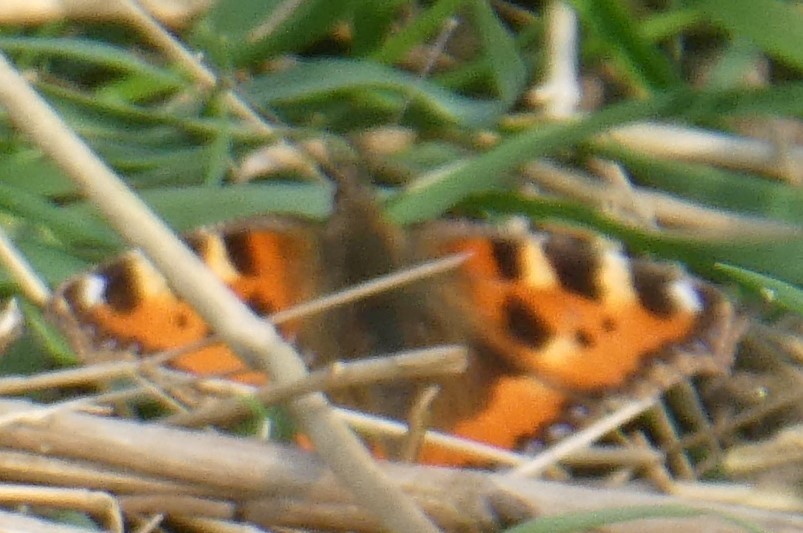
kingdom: Animalia
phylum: Arthropoda
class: Insecta
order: Lepidoptera
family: Nymphalidae
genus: Aglais
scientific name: Aglais urticae
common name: Small tortoiseshell
